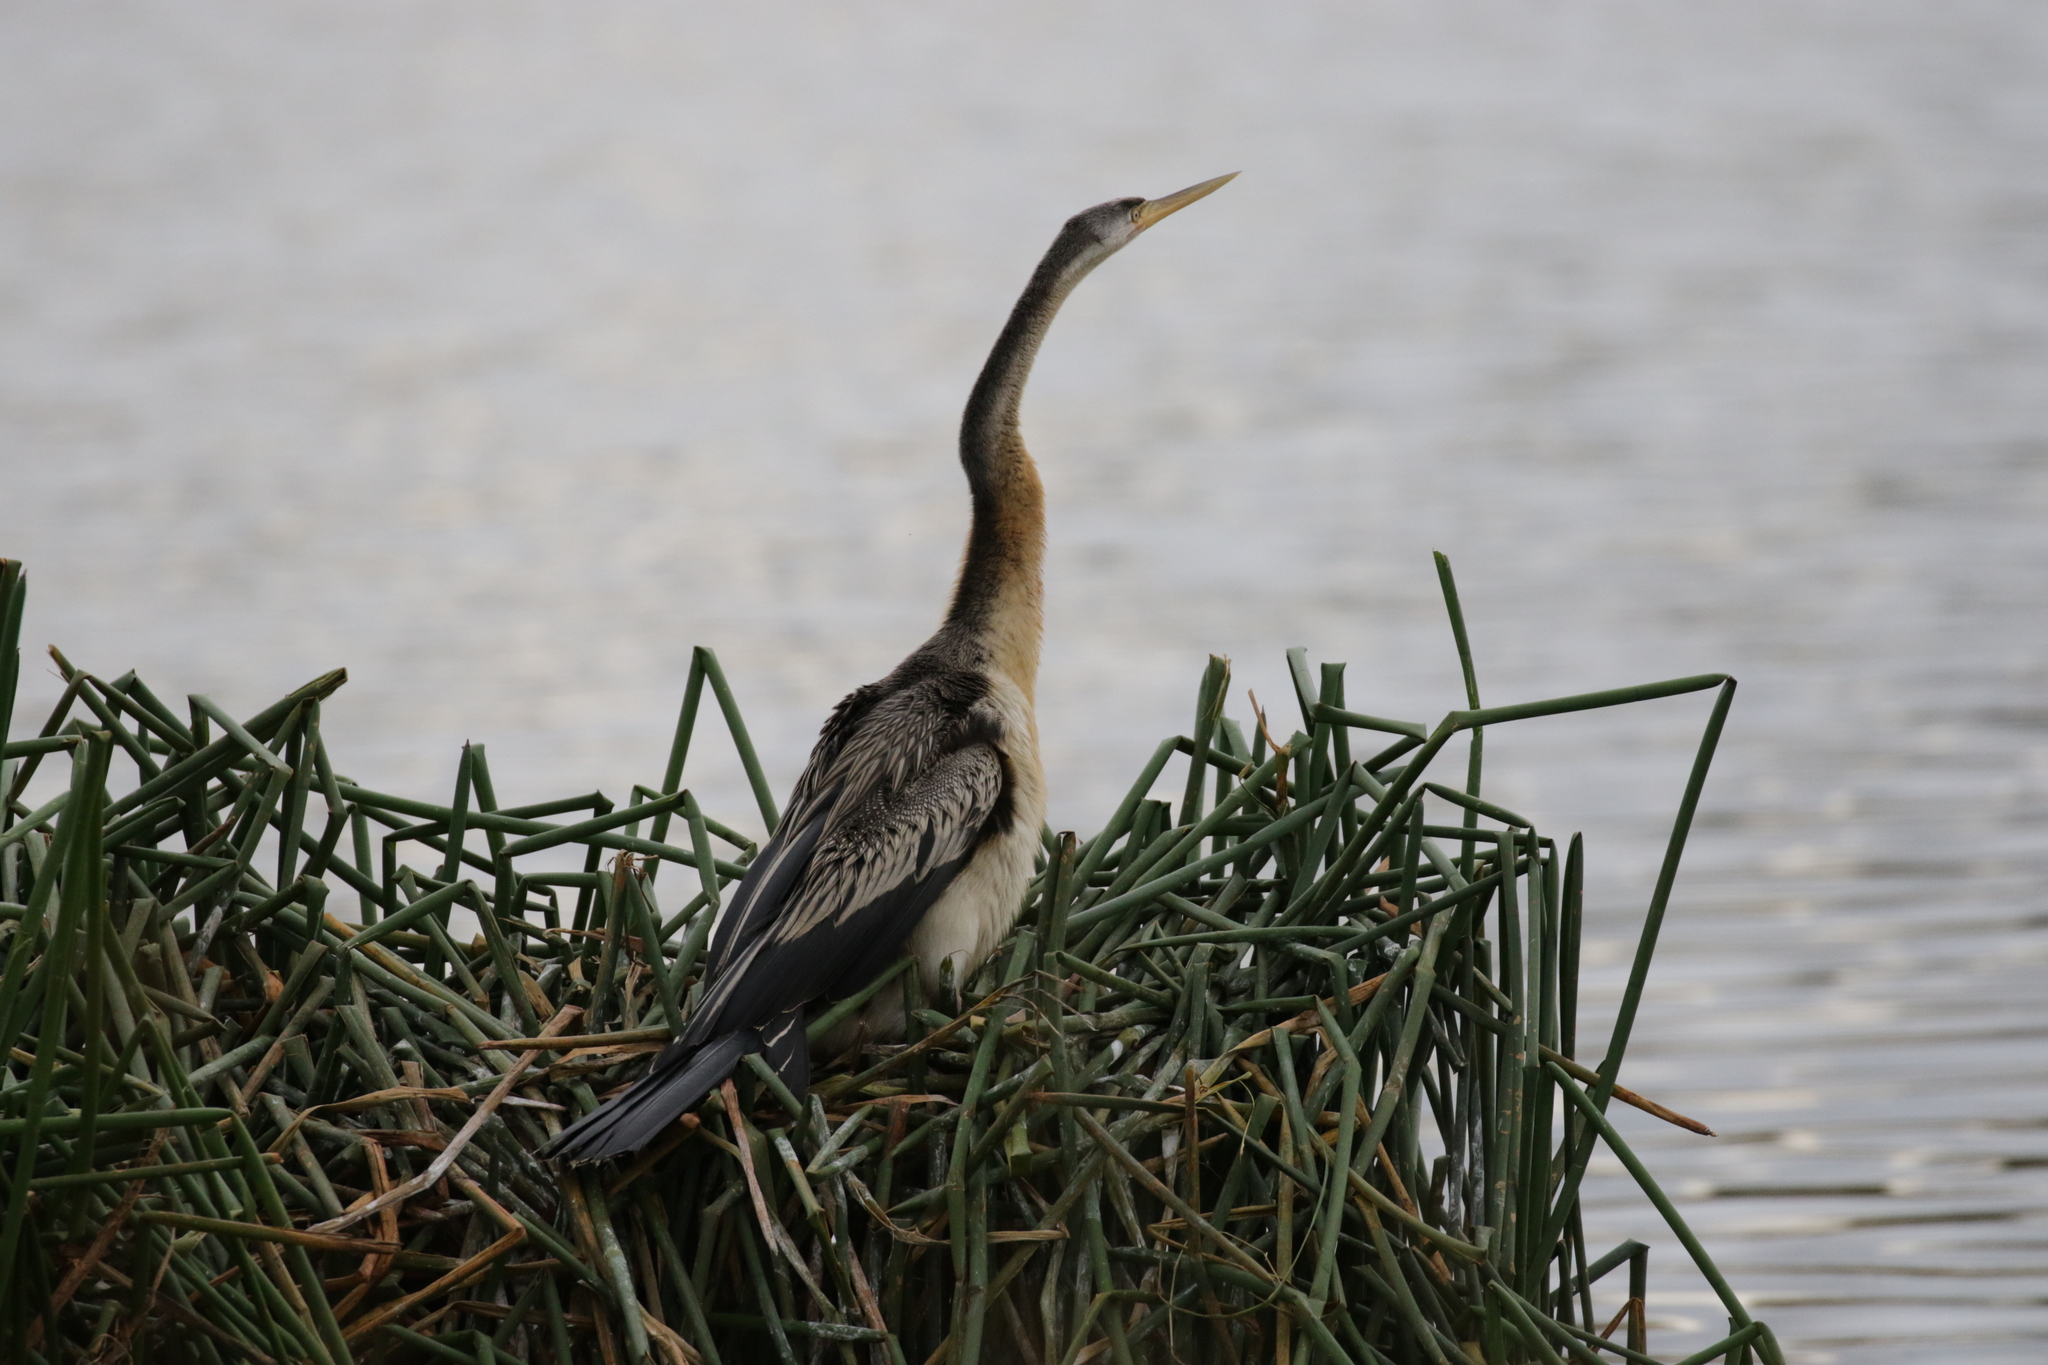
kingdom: Animalia
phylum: Chordata
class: Aves
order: Suliformes
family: Anhingidae
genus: Anhinga
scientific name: Anhinga novaehollandiae
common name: Australasian darter
